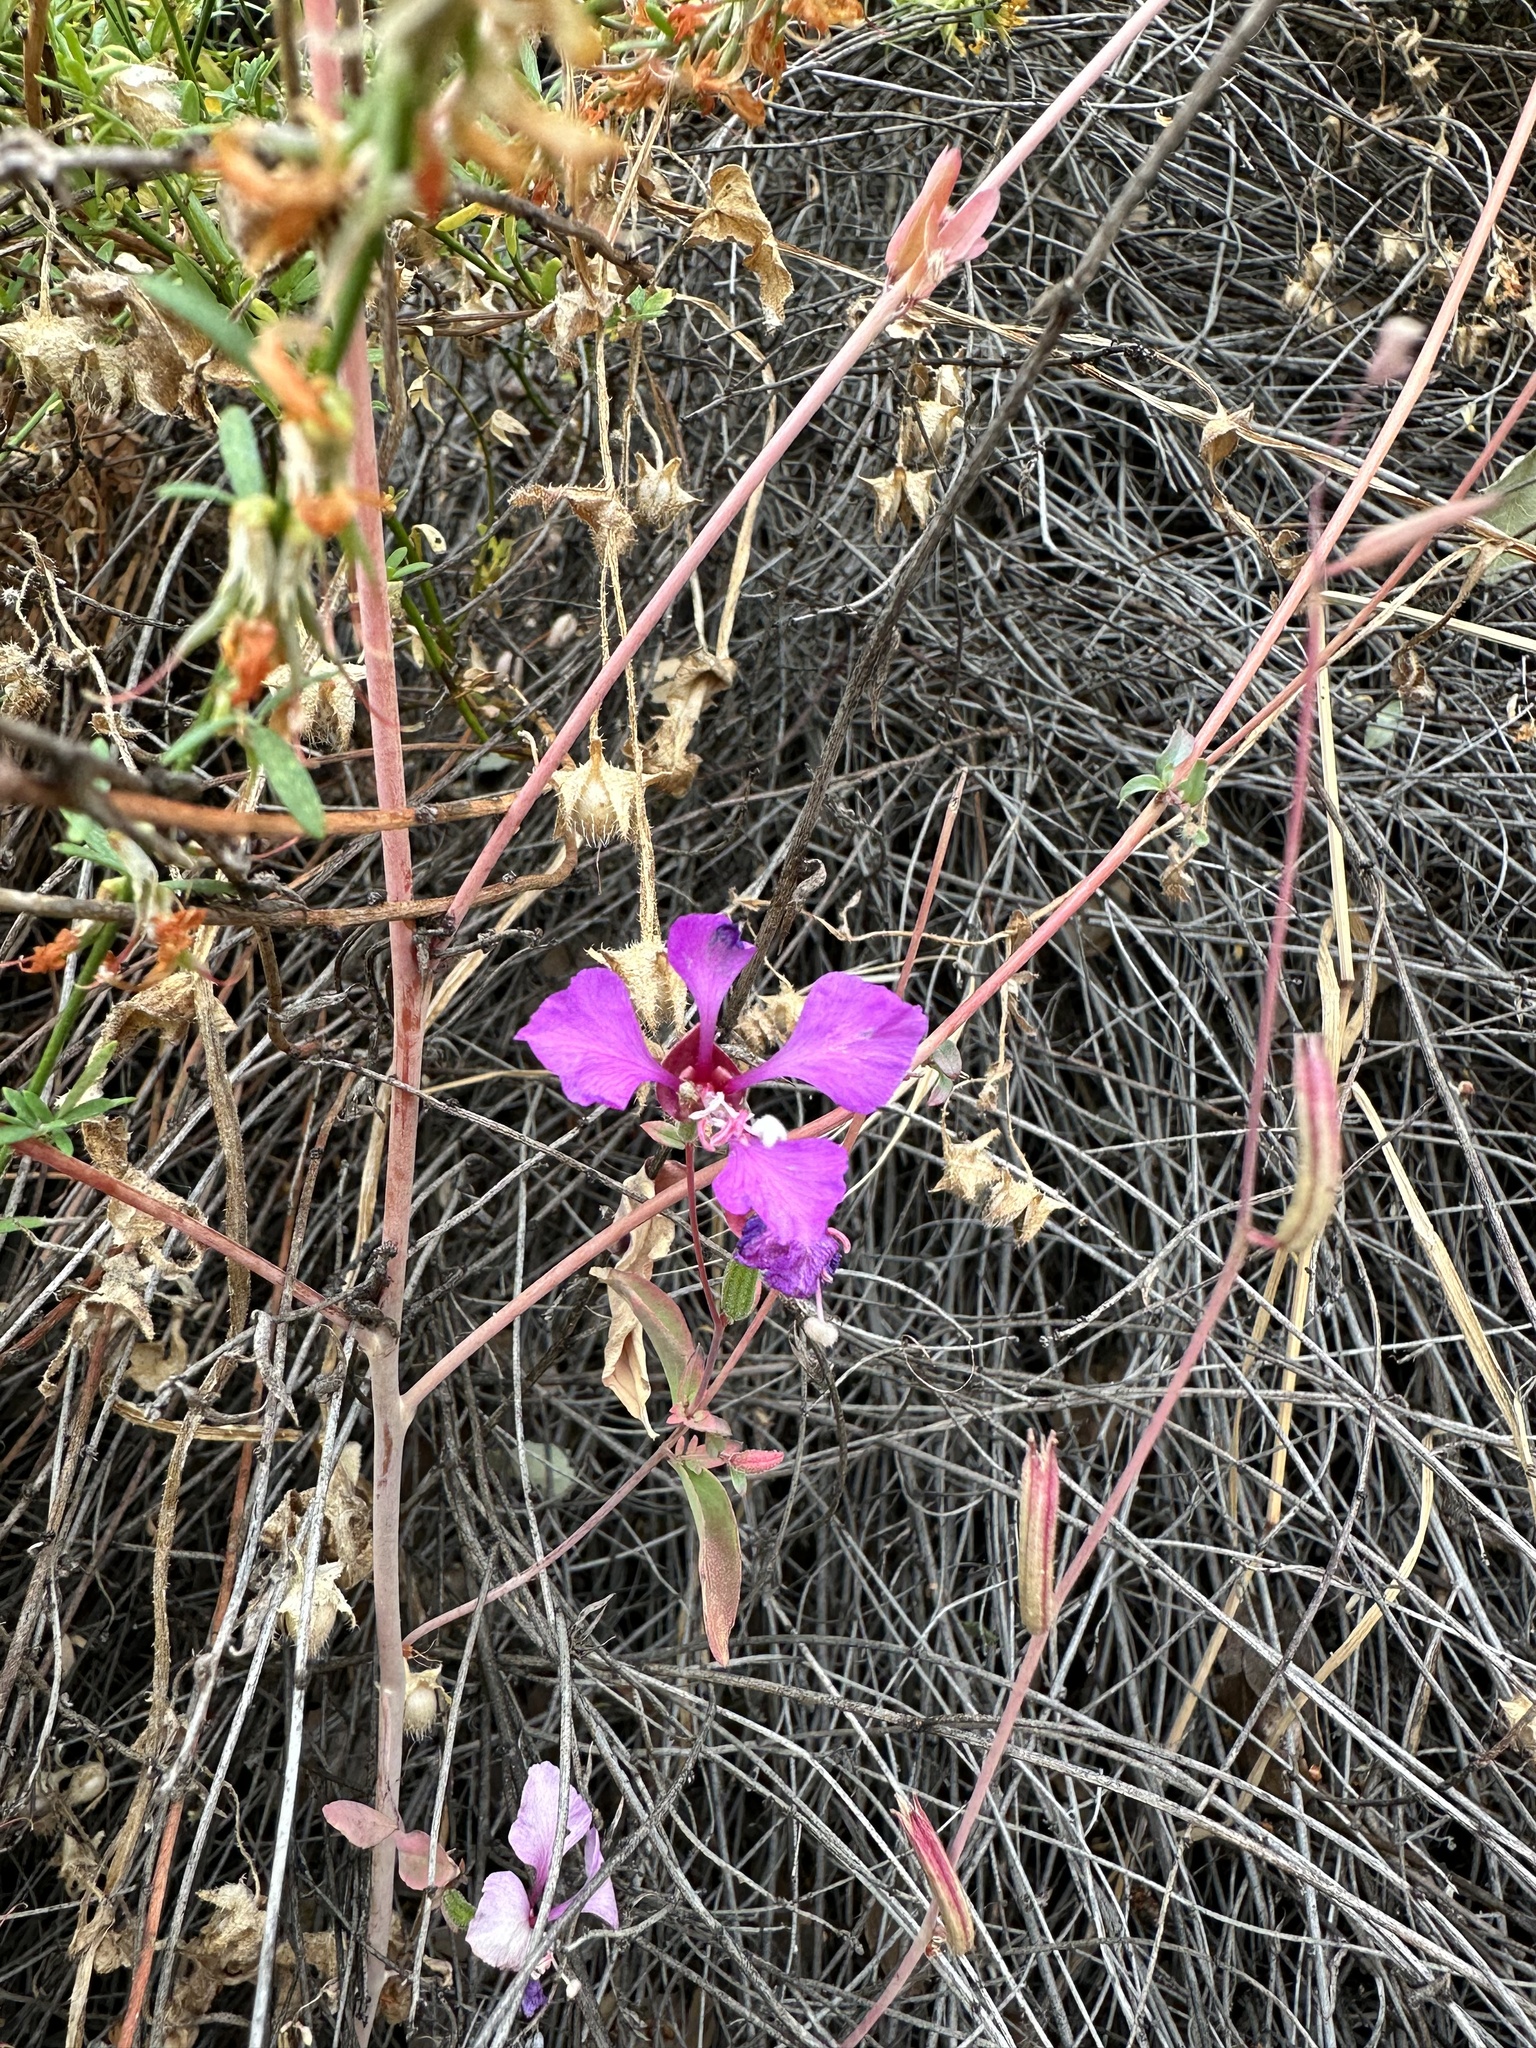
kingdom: Plantae
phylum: Tracheophyta
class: Magnoliopsida
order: Myrtales
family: Onagraceae
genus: Clarkia
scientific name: Clarkia unguiculata
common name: Clarkia
